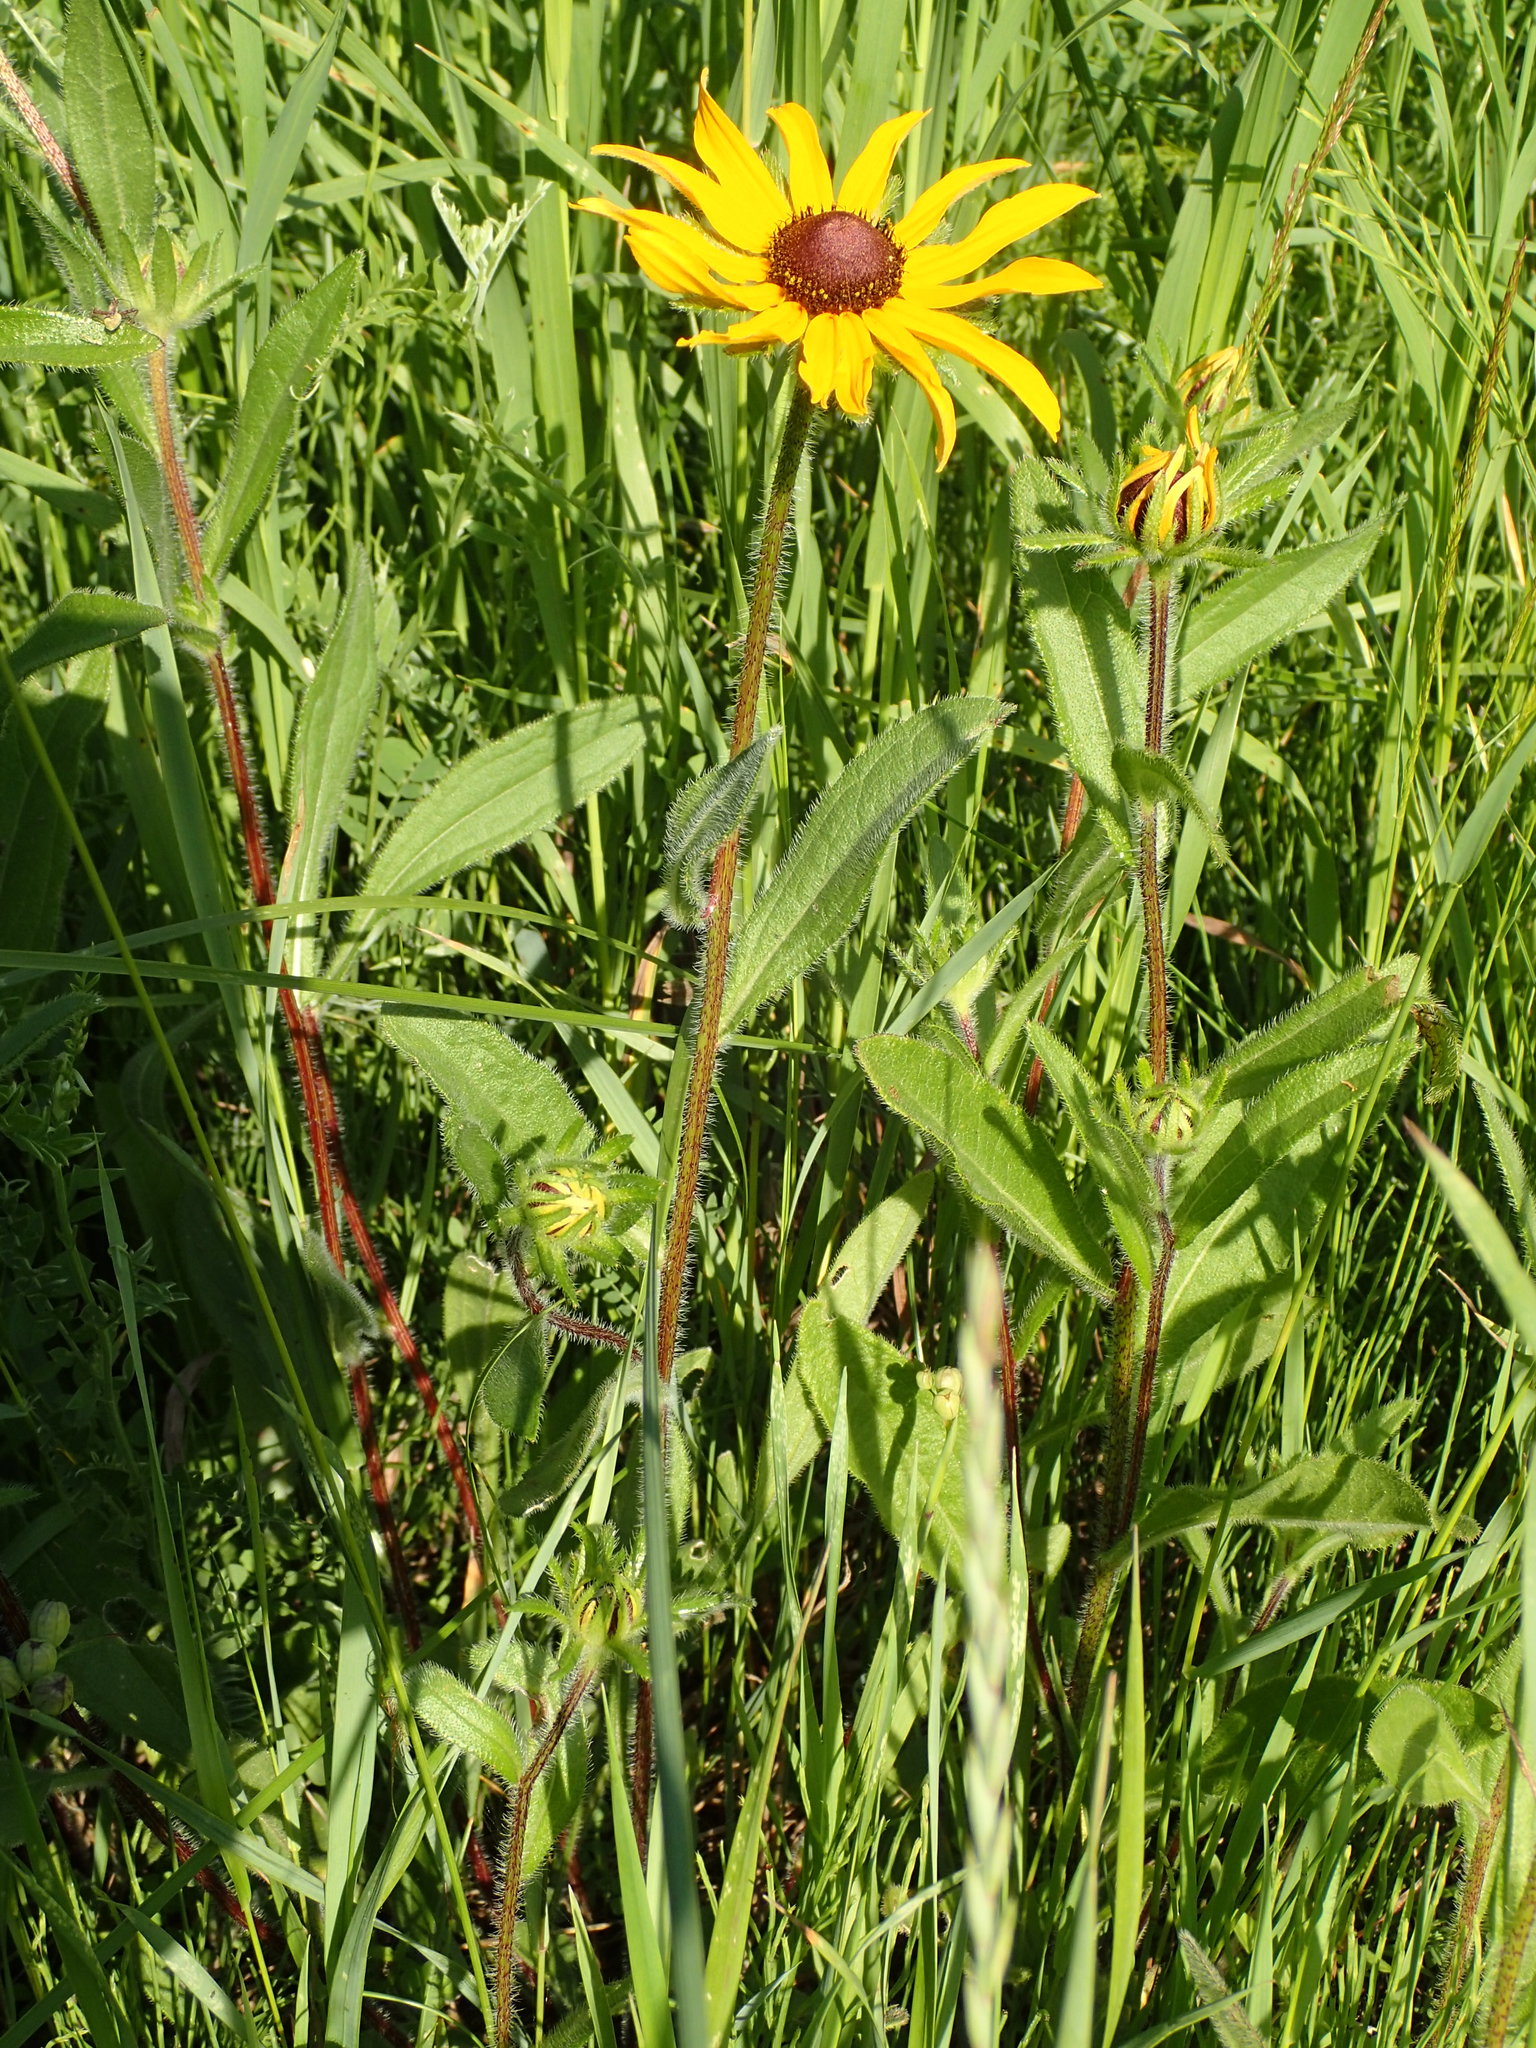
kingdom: Plantae
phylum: Tracheophyta
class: Magnoliopsida
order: Asterales
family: Asteraceae
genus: Rudbeckia
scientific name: Rudbeckia hirta
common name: Black-eyed-susan
